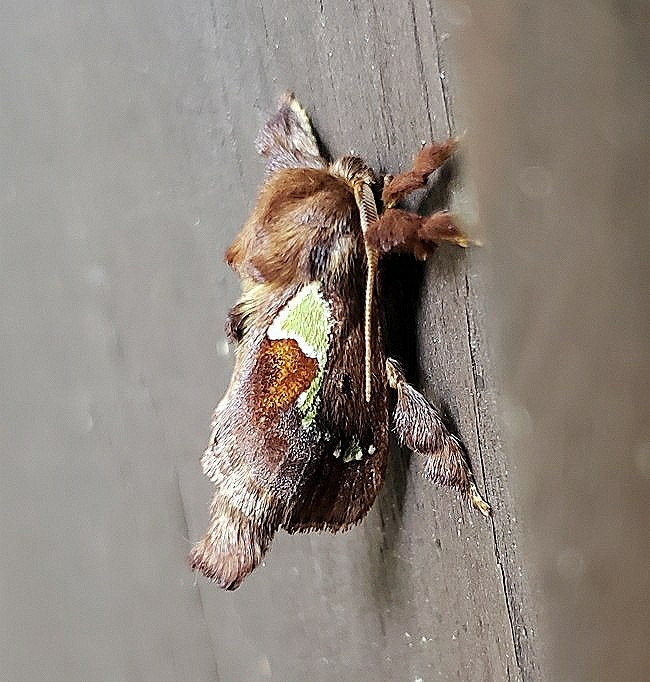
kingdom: Animalia
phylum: Arthropoda
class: Insecta
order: Lepidoptera
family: Limacodidae
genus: Euclea
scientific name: Euclea delphinii
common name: Spiny oak-slug moth
